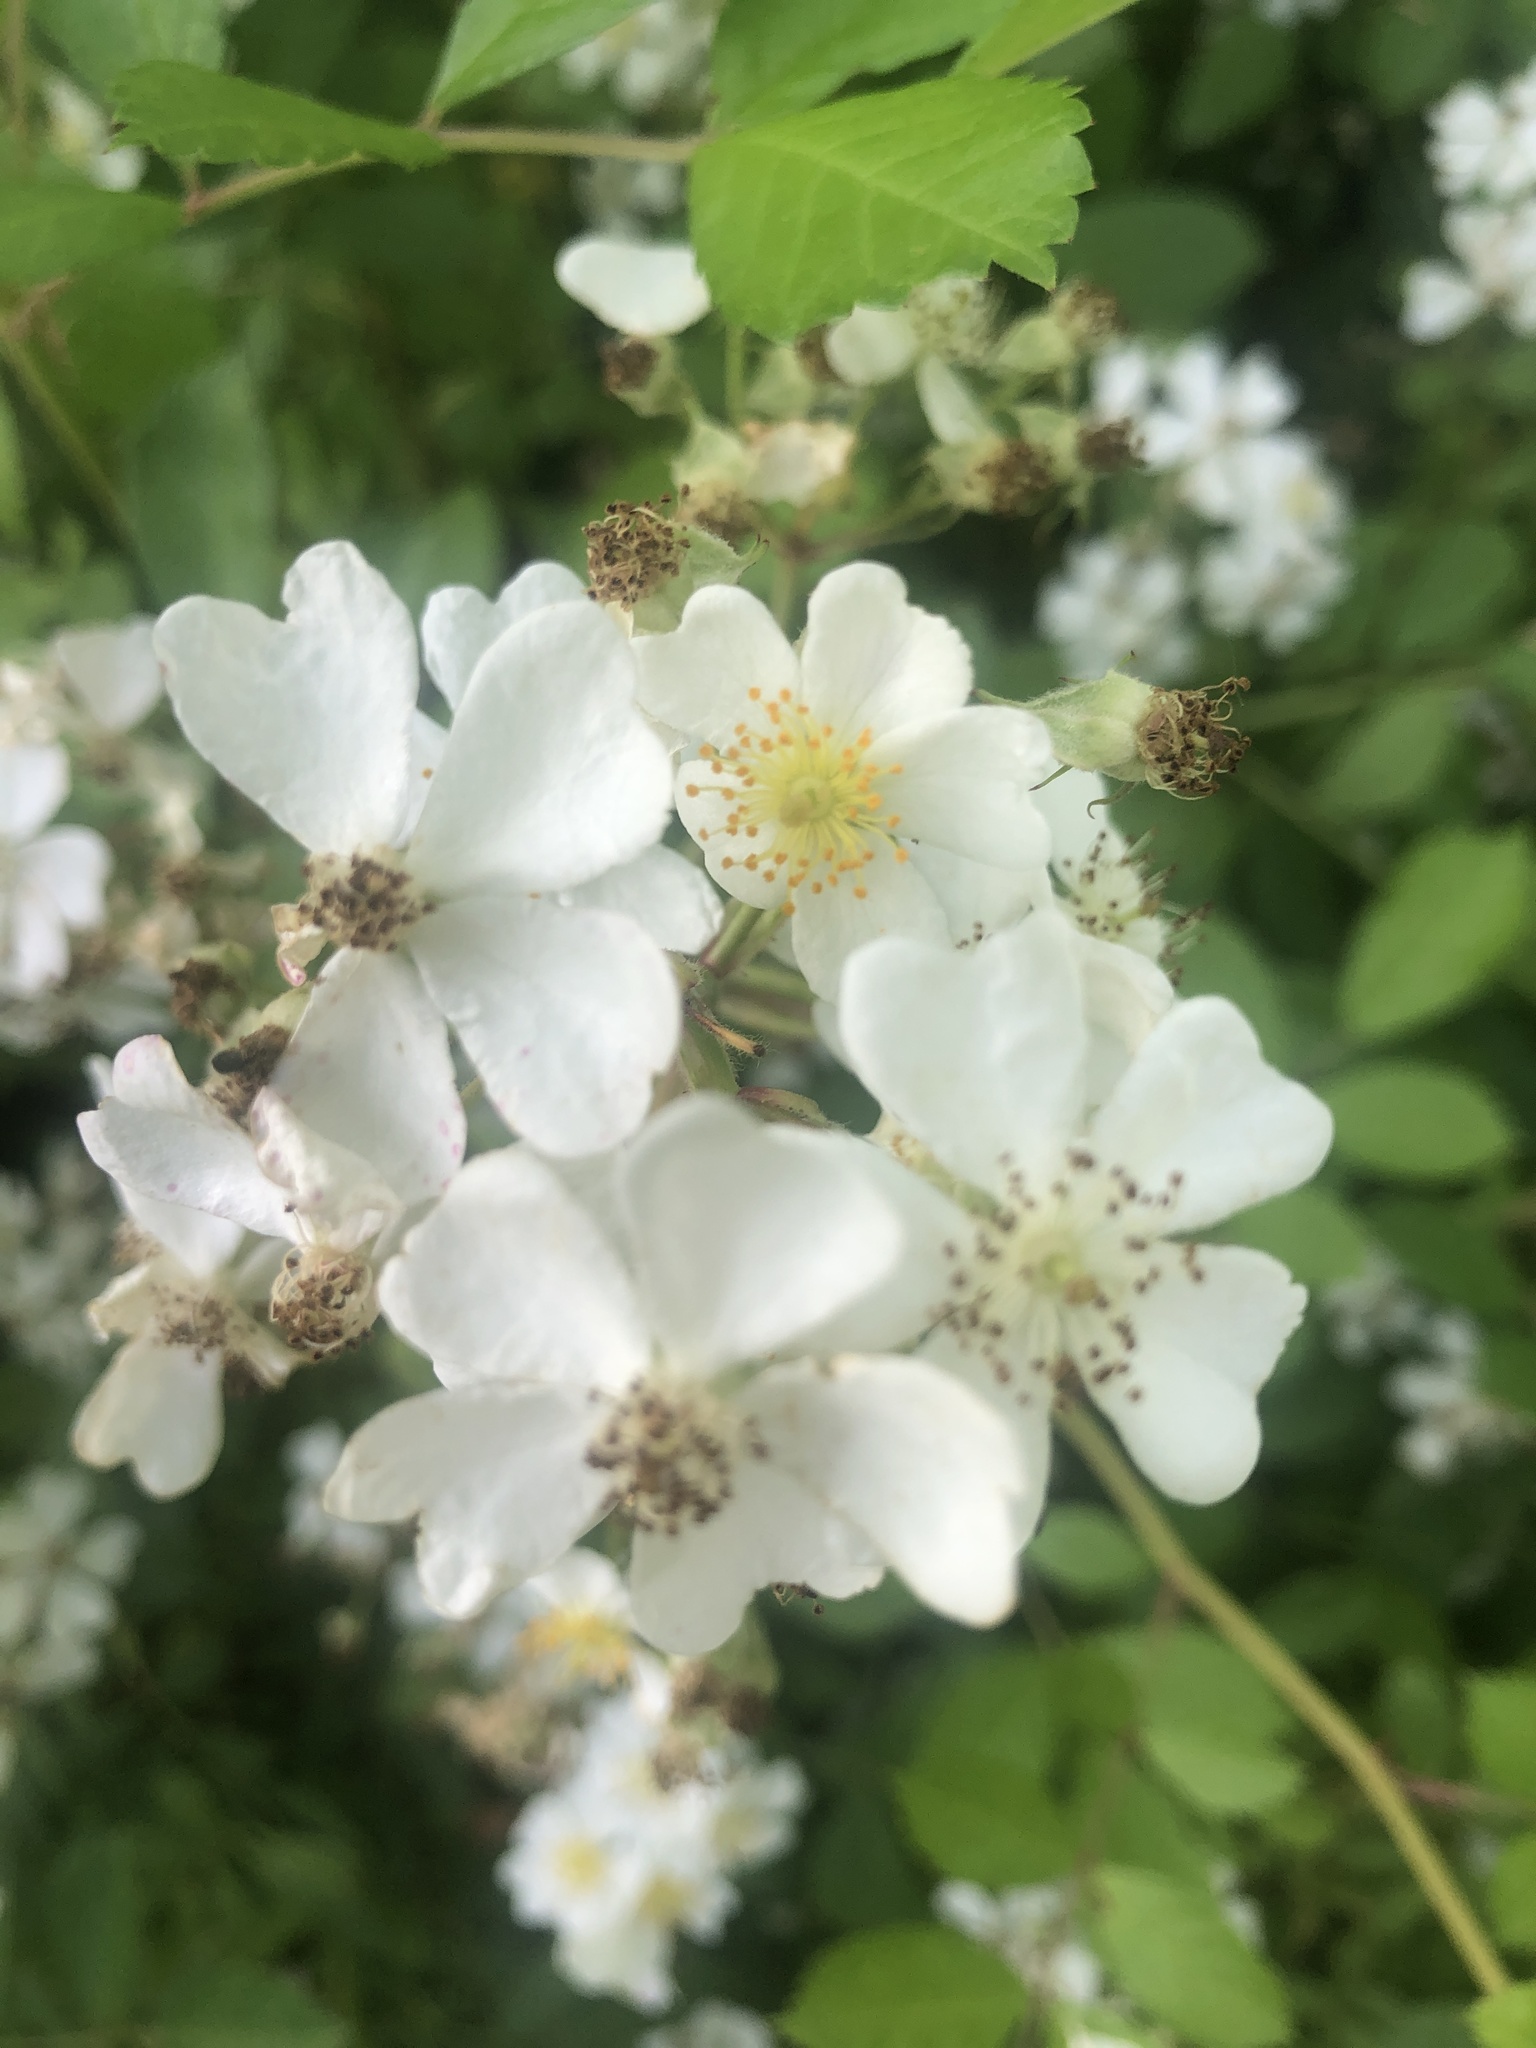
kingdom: Plantae
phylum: Tracheophyta
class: Magnoliopsida
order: Rosales
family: Rosaceae
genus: Rosa
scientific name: Rosa multiflora
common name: Multiflora rose
